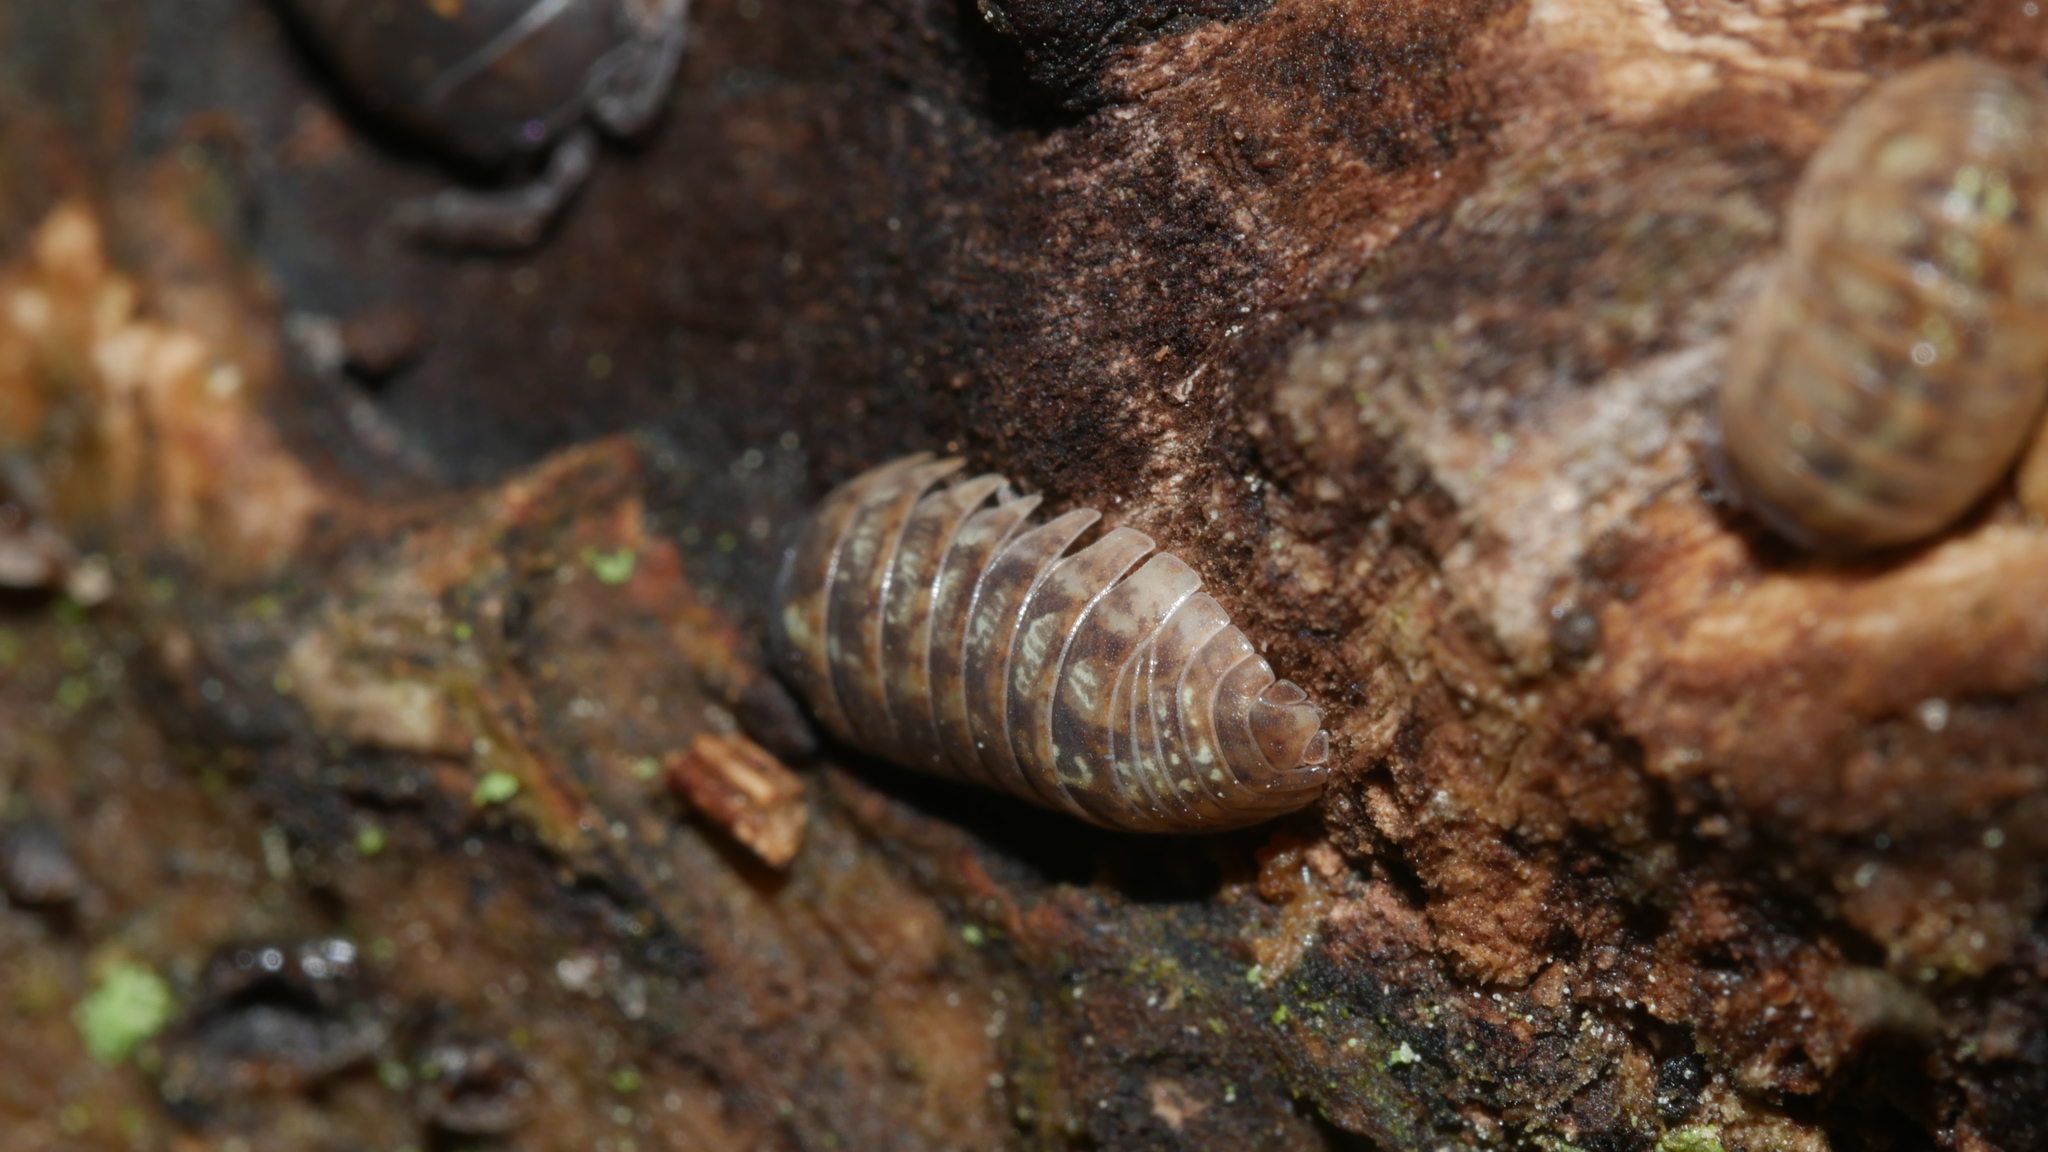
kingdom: Animalia
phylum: Arthropoda
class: Malacostraca
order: Isopoda
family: Armadillidiidae
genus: Armadillidium
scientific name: Armadillidium vulgare
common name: Common pill woodlouse
